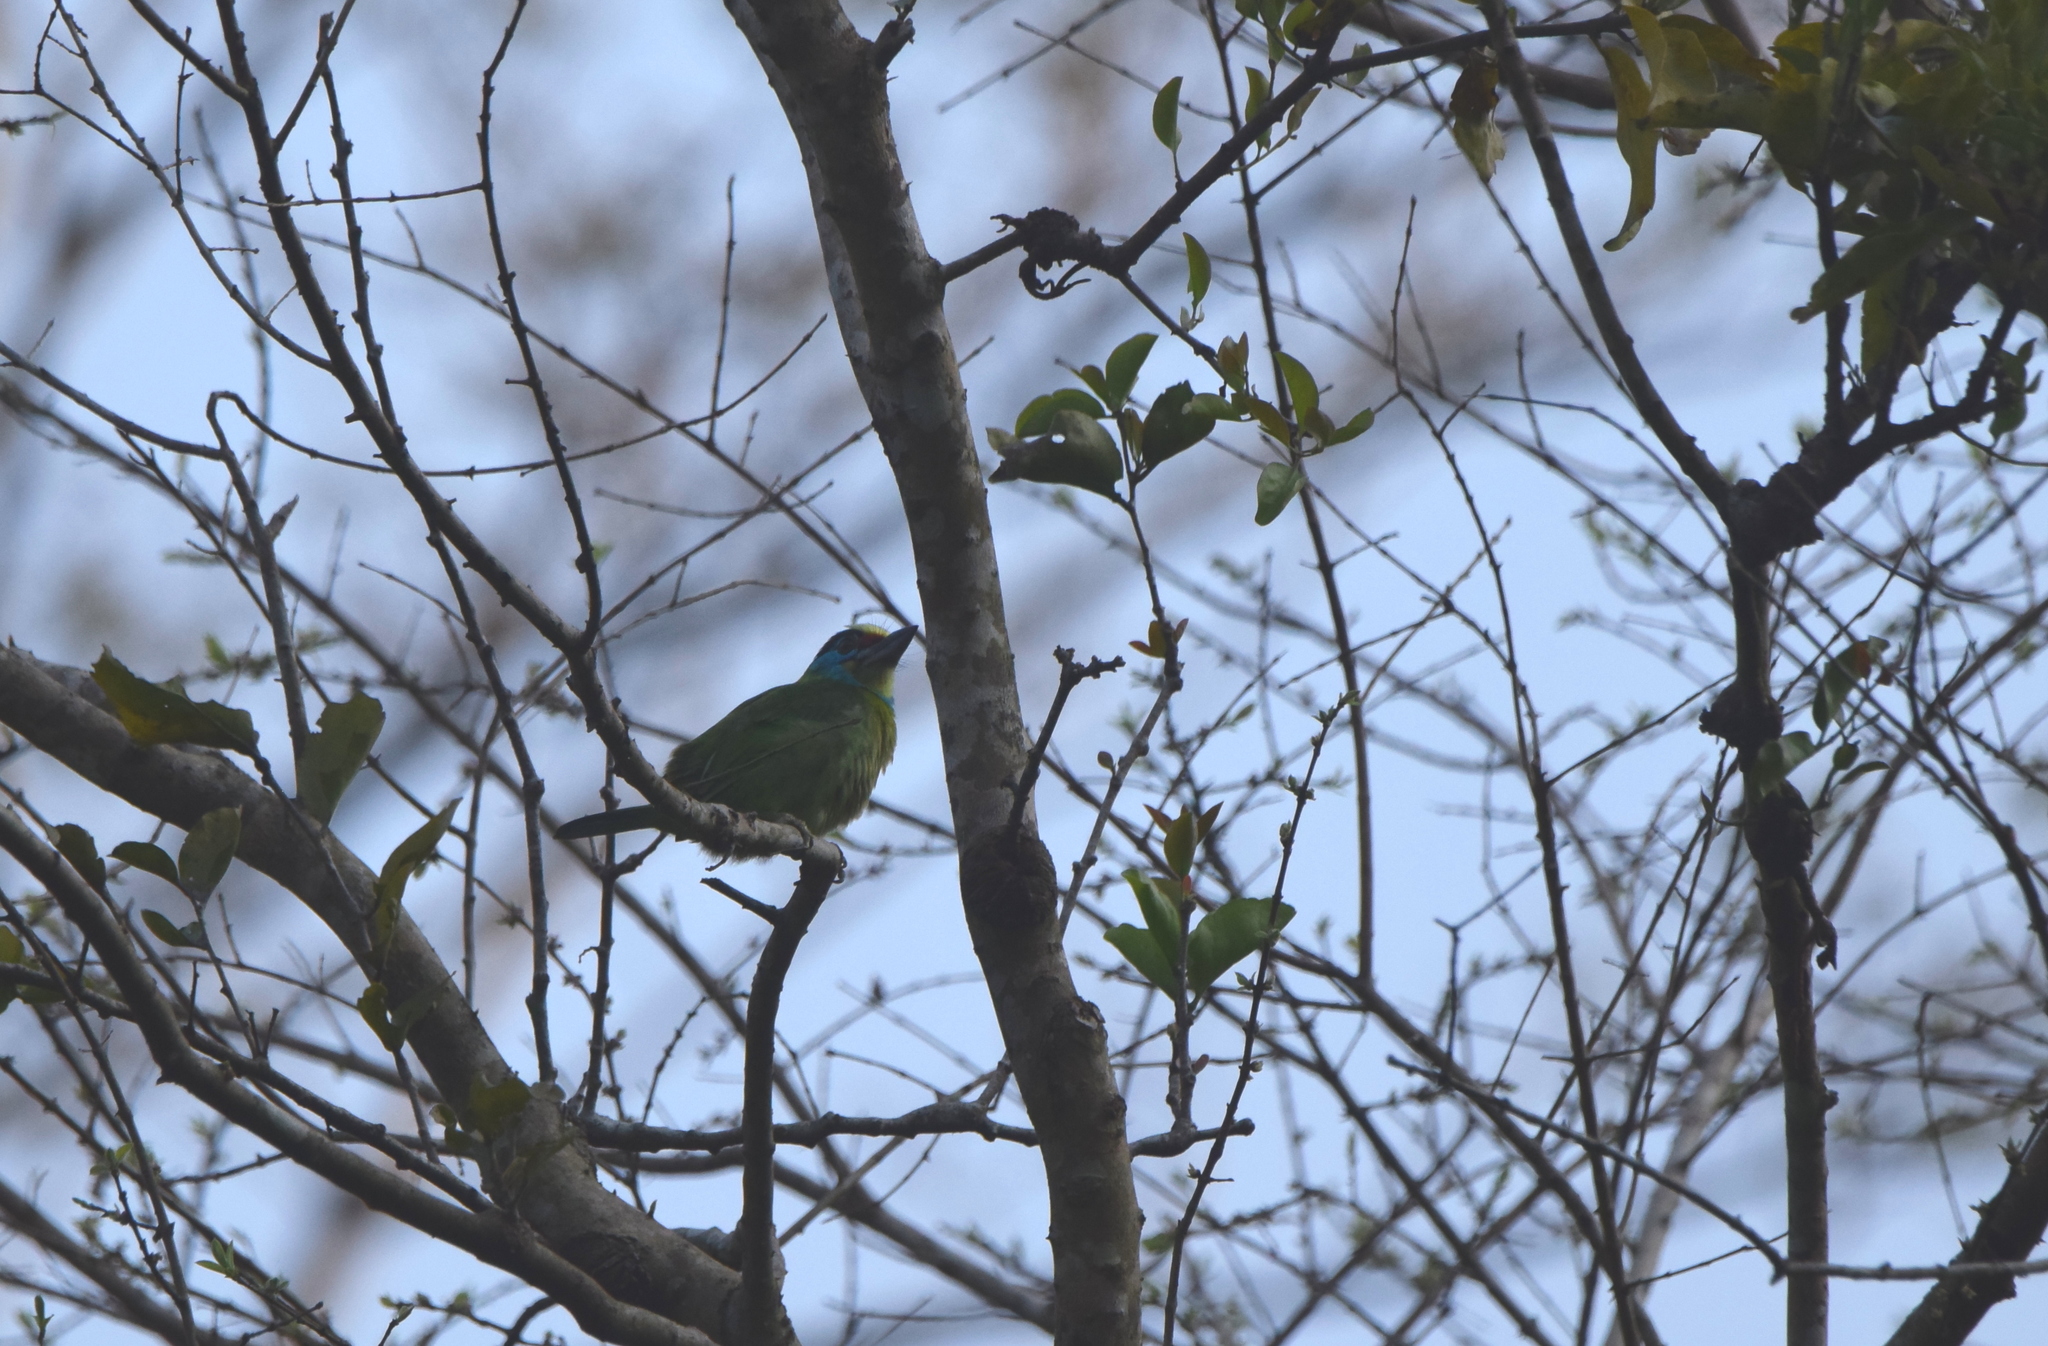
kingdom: Animalia
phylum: Chordata
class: Aves
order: Piciformes
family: Megalaimidae
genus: Psilopogon
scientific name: Psilopogon annamensis
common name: Indochinese barbet
